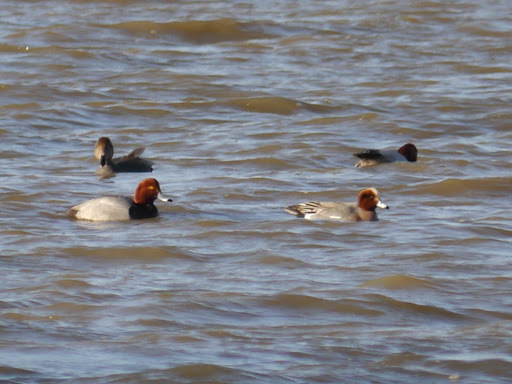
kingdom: Animalia
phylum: Chordata
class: Aves
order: Anseriformes
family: Anatidae
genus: Aythya
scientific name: Aythya americana
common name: Redhead
